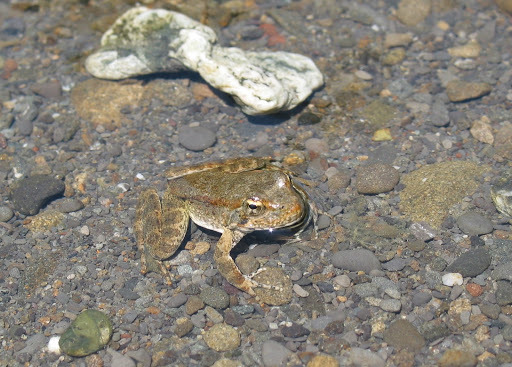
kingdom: Animalia
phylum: Chordata
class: Amphibia
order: Anura
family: Ranidae
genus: Rana
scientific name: Rana boylii
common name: Foothill yellow-legged frog
